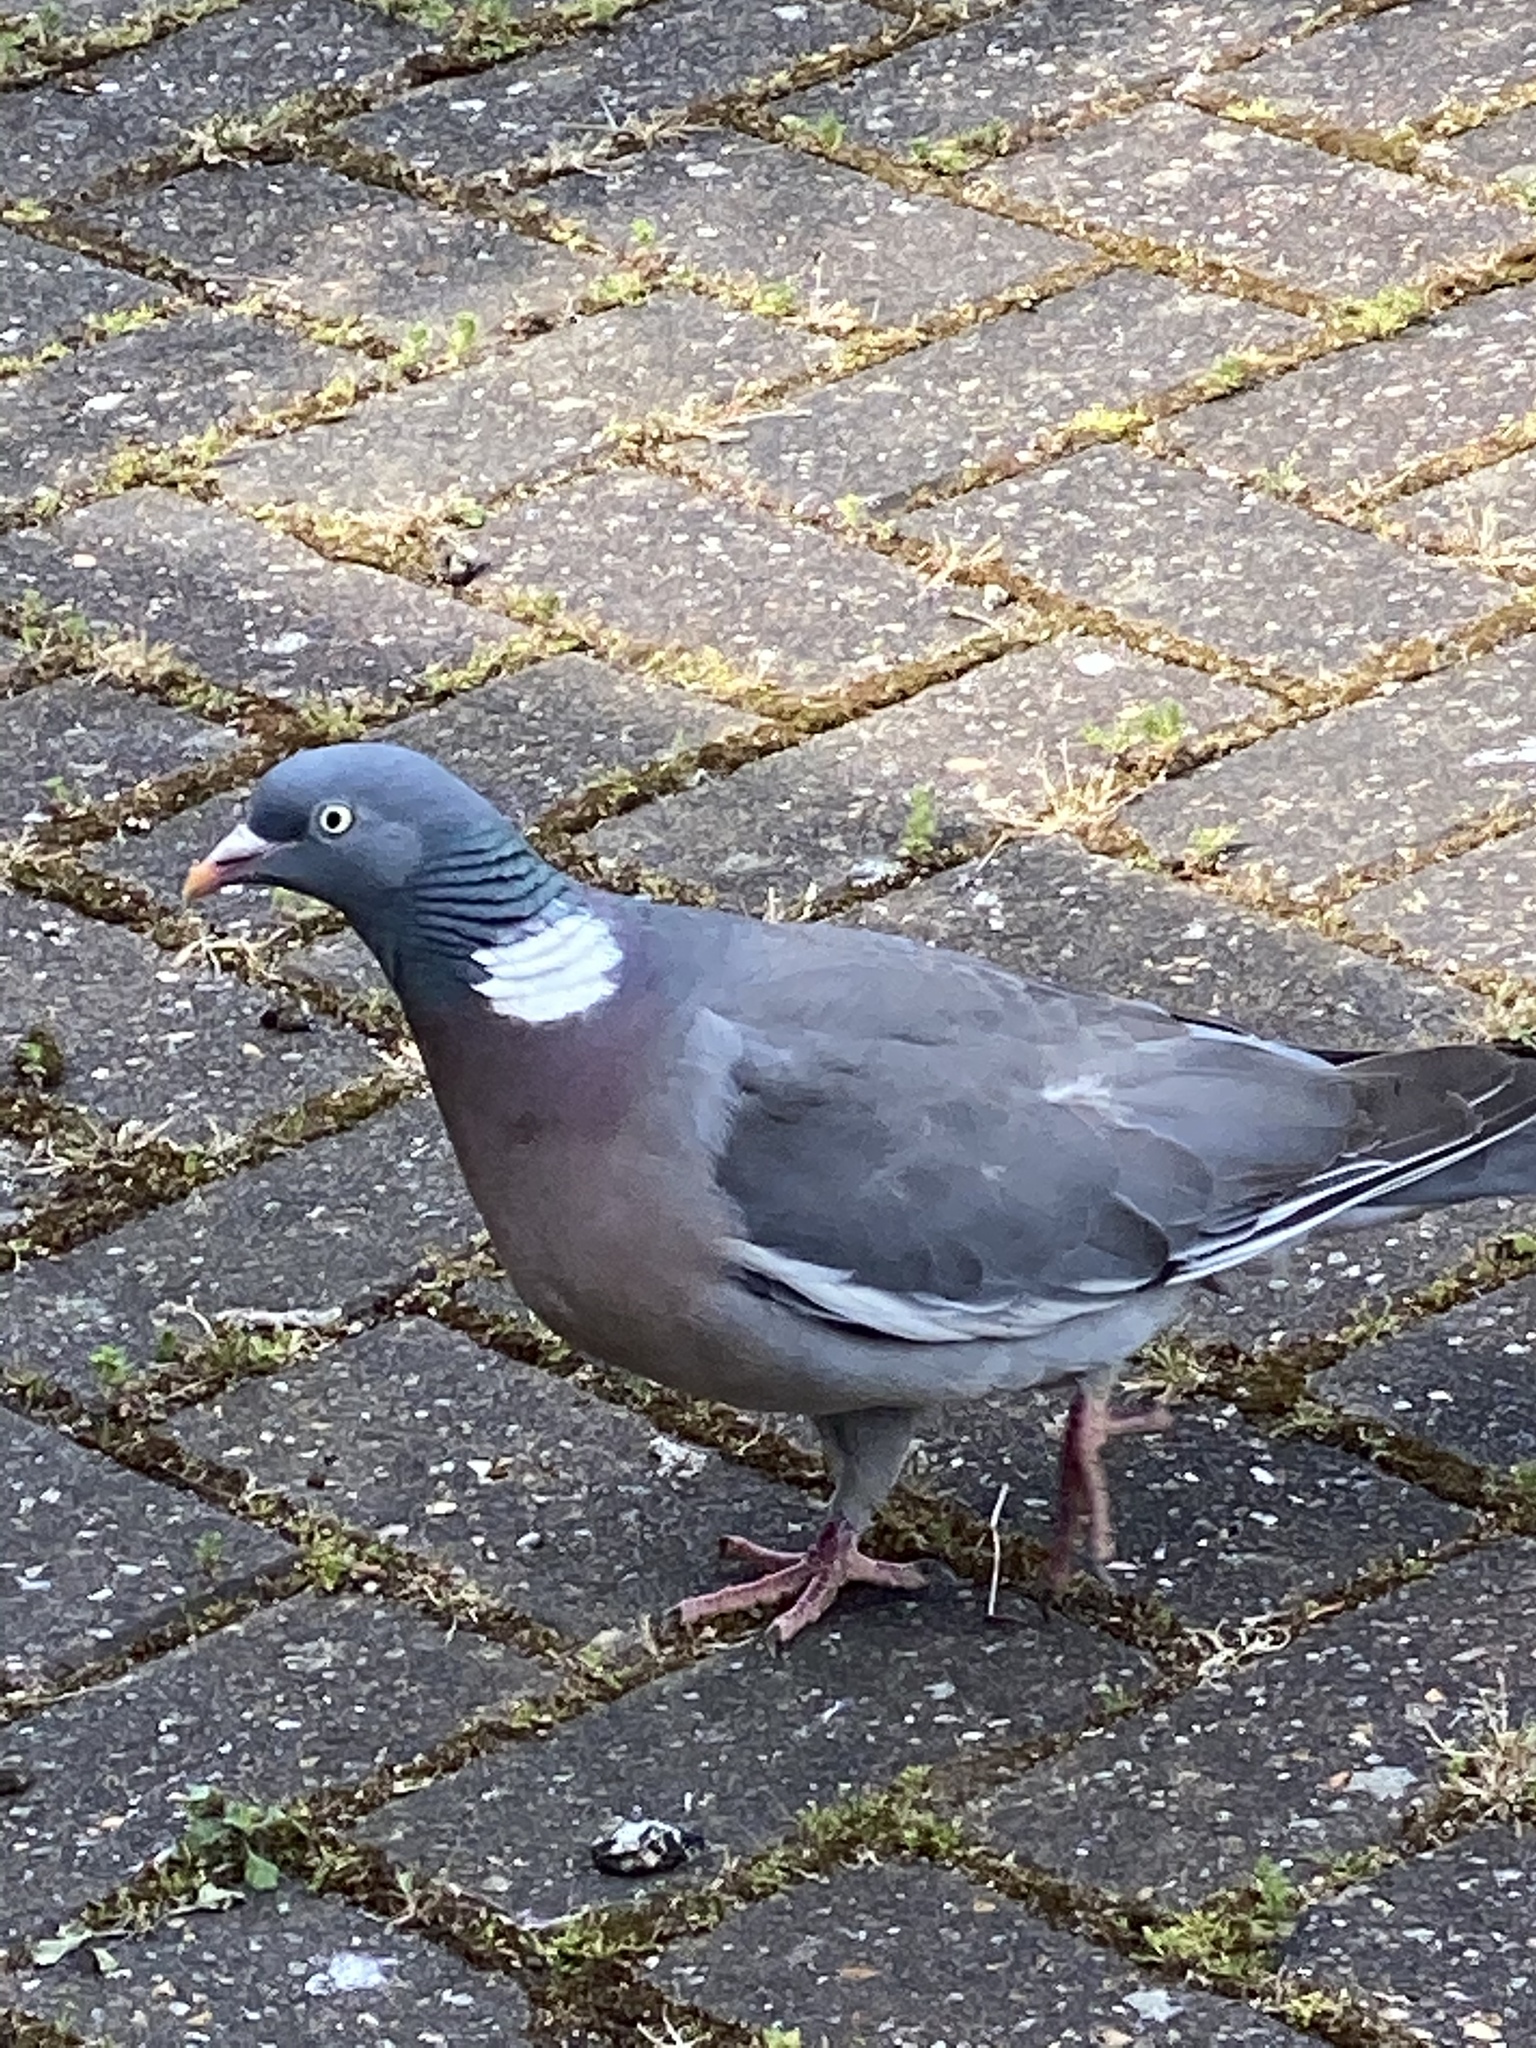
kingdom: Animalia
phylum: Chordata
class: Aves
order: Columbiformes
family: Columbidae
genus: Columba
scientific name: Columba palumbus
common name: Common wood pigeon
